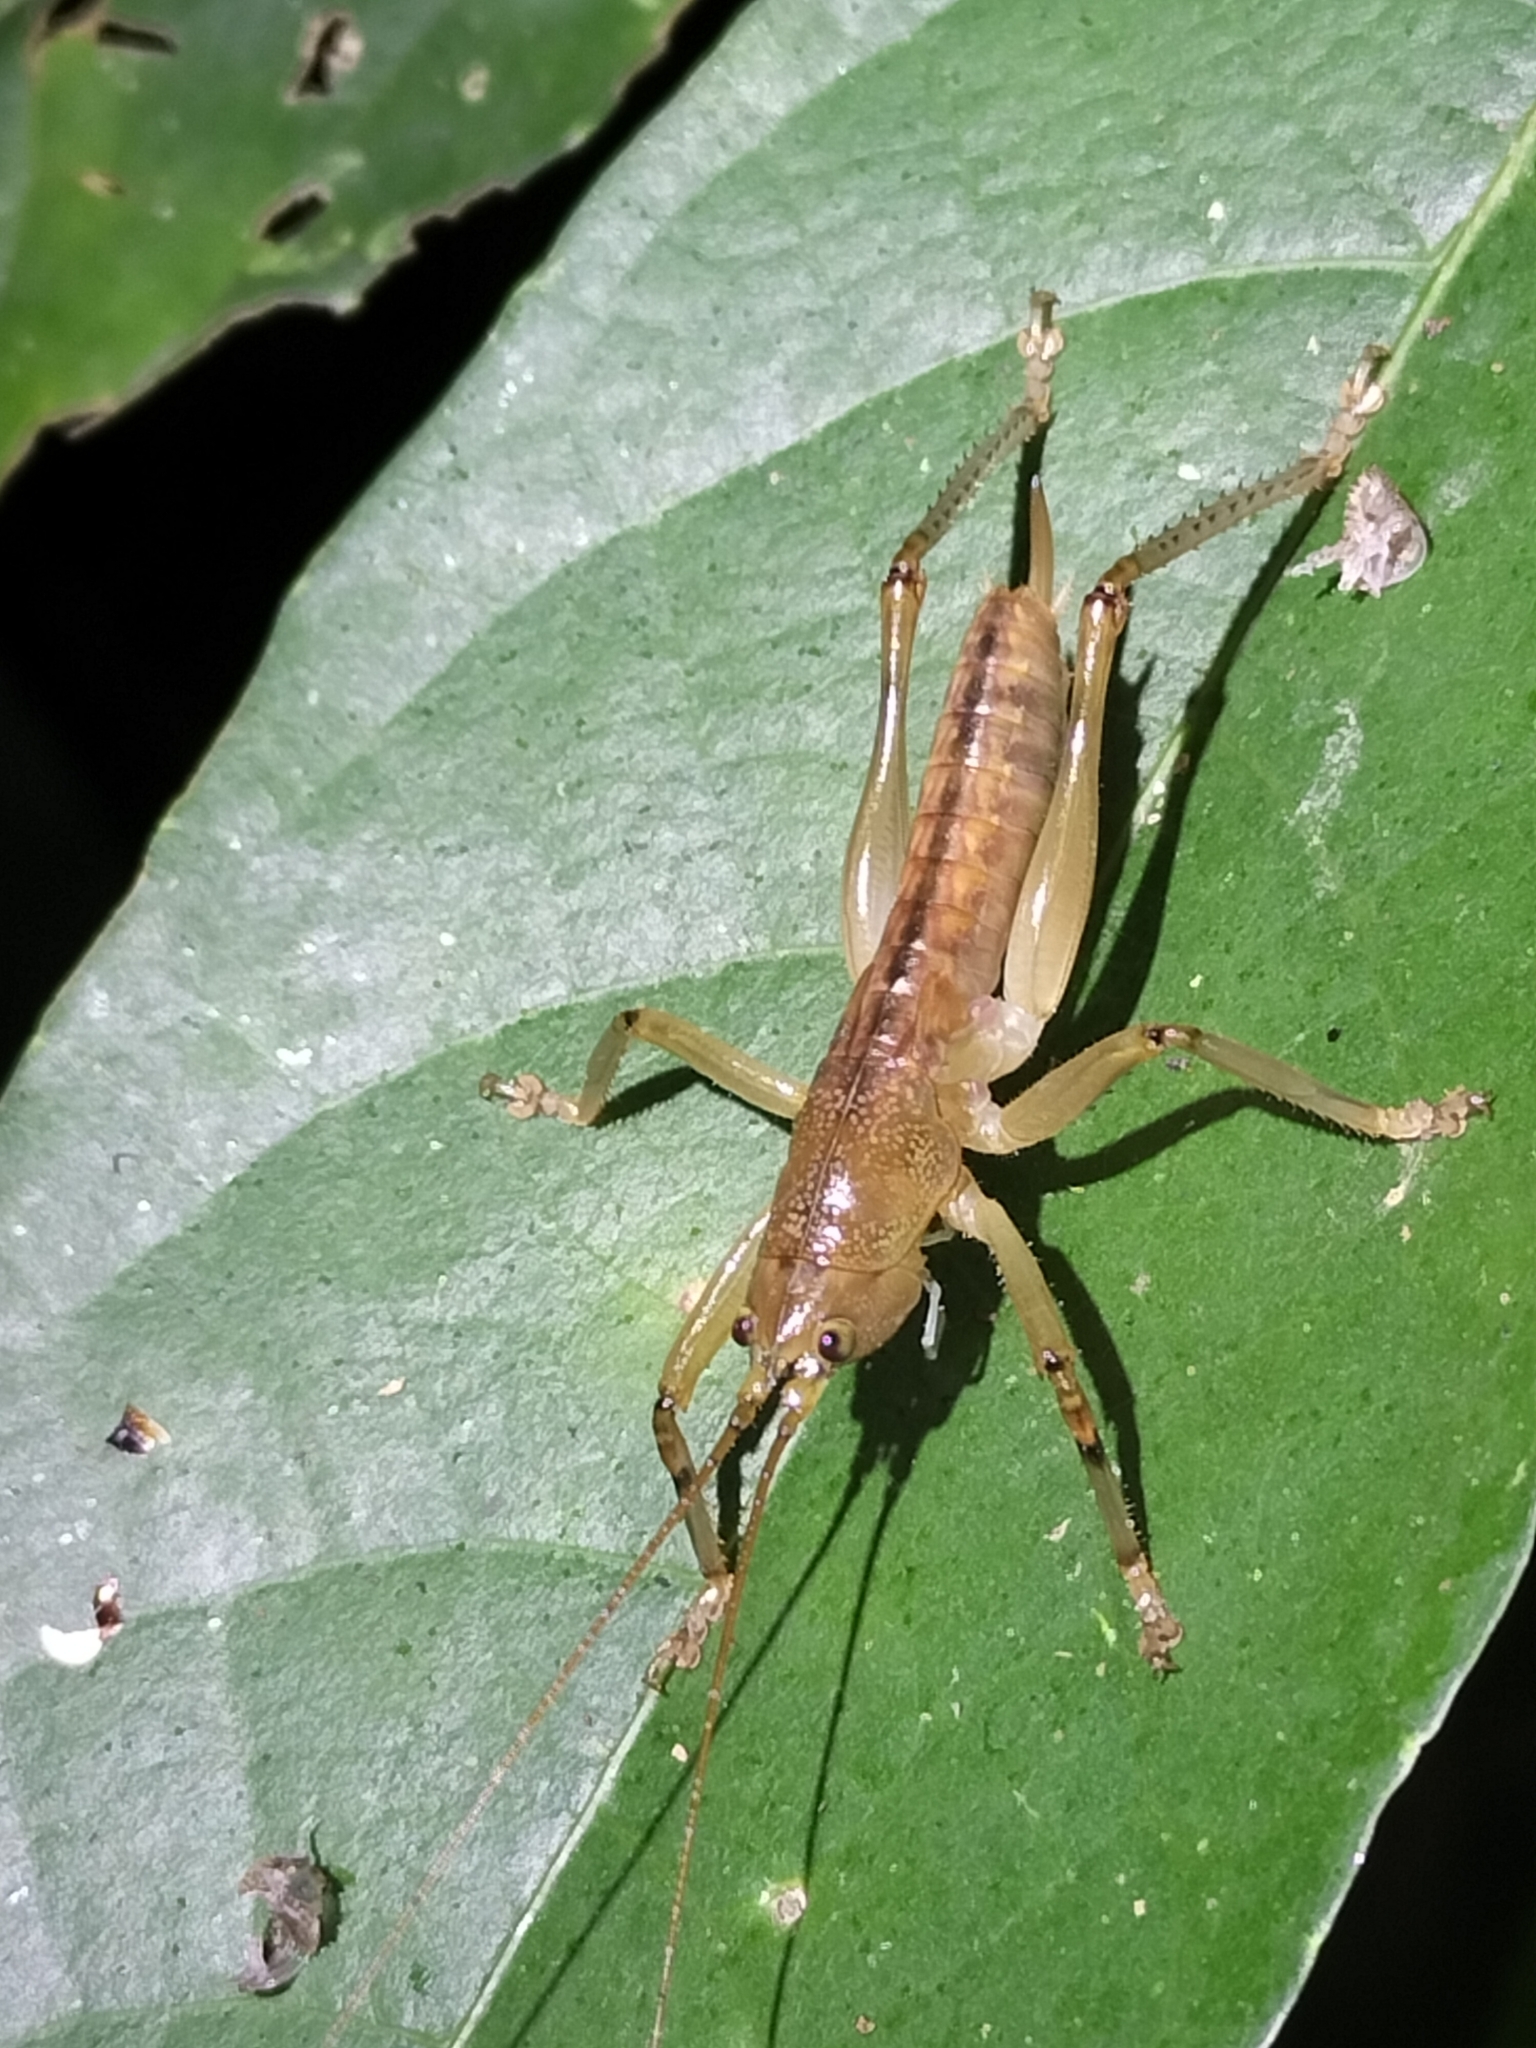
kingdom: Animalia
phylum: Arthropoda
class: Insecta
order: Orthoptera
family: Tettigoniidae
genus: Barbaragraecia
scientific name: Barbaragraecia richardsoni
